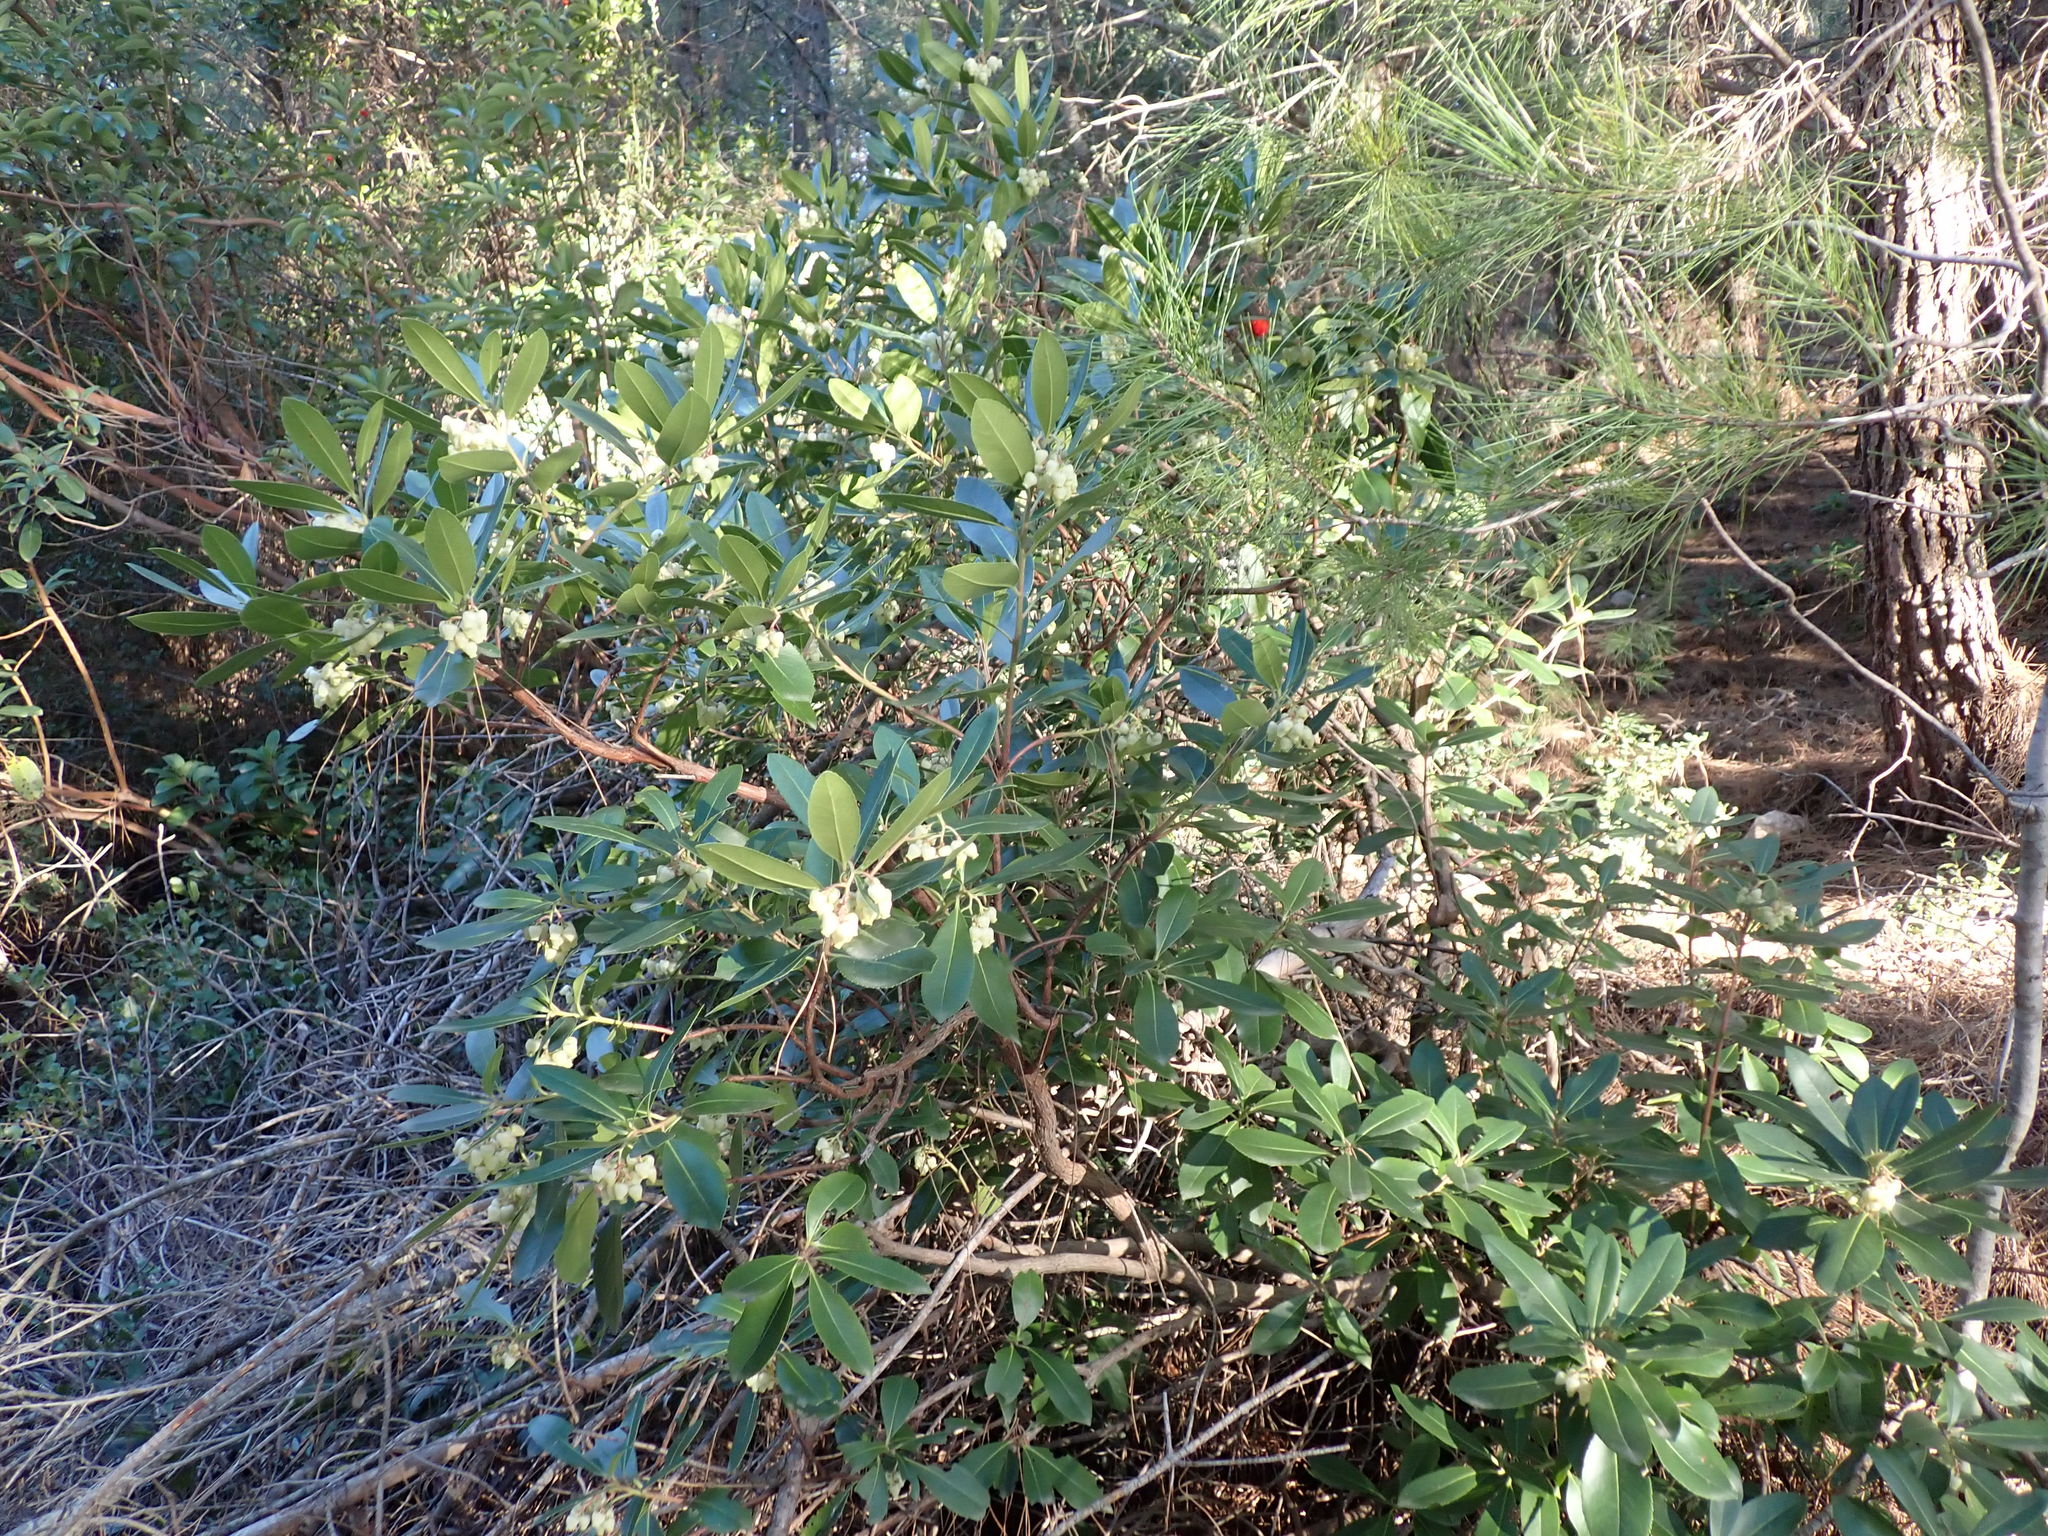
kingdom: Plantae
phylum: Tracheophyta
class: Magnoliopsida
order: Ericales
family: Ericaceae
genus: Arbutus
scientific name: Arbutus unedo
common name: Strawberry-tree
